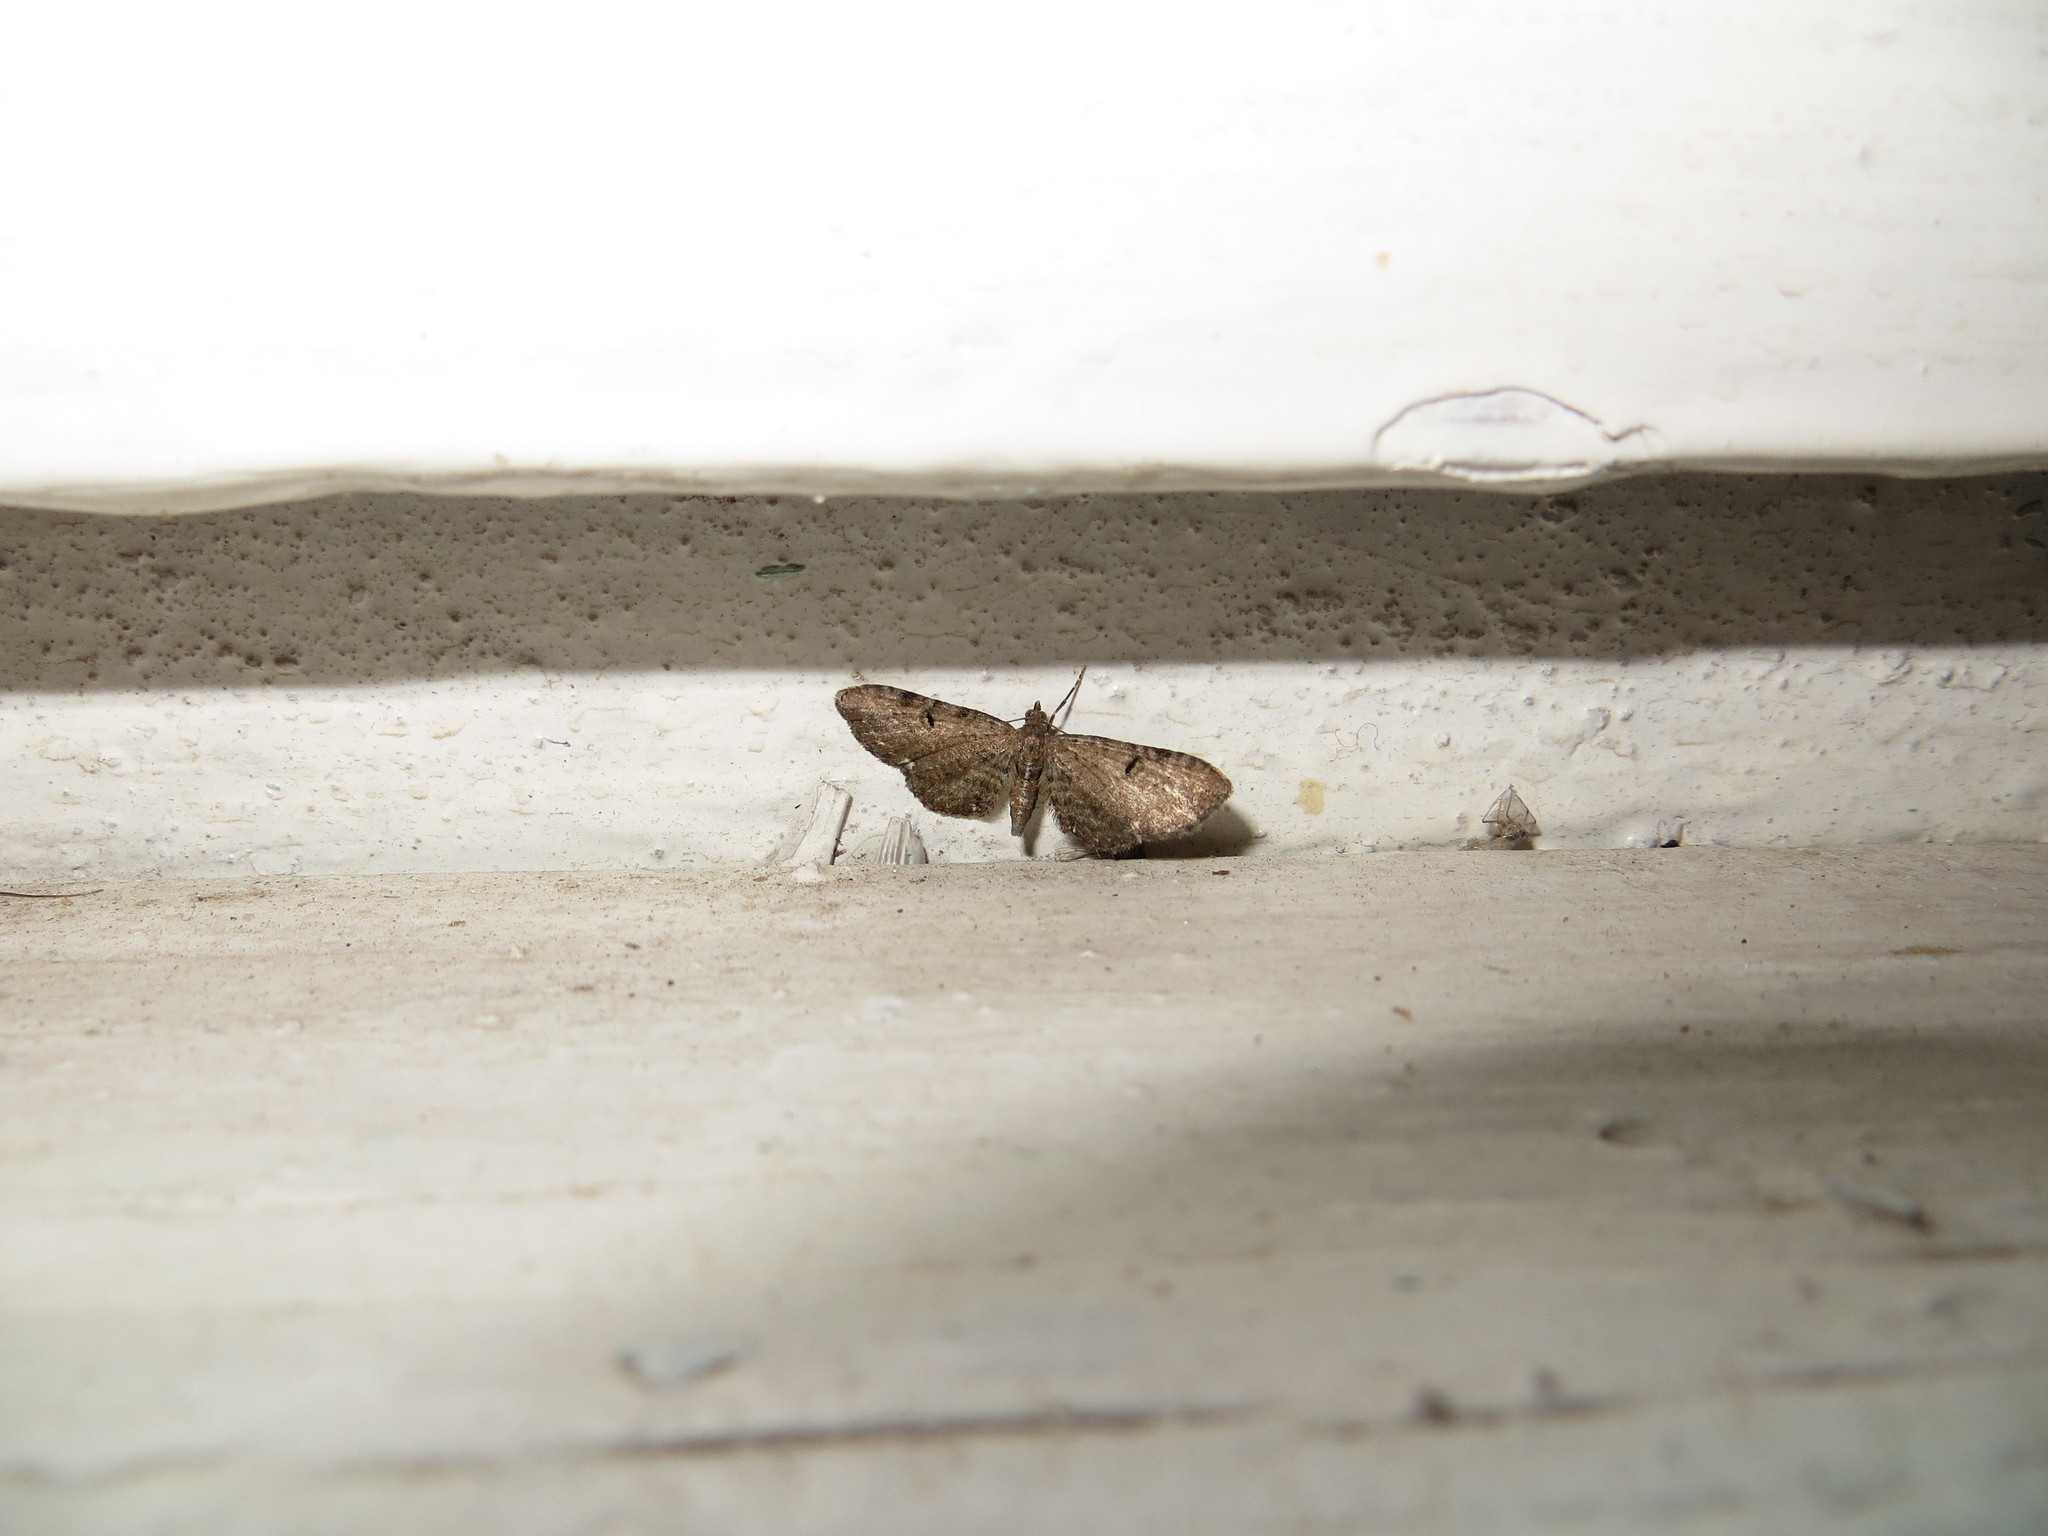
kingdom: Animalia
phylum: Arthropoda
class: Insecta
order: Lepidoptera
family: Geometridae
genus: Eupithecia
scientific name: Eupithecia assimilata
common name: Currant pug
